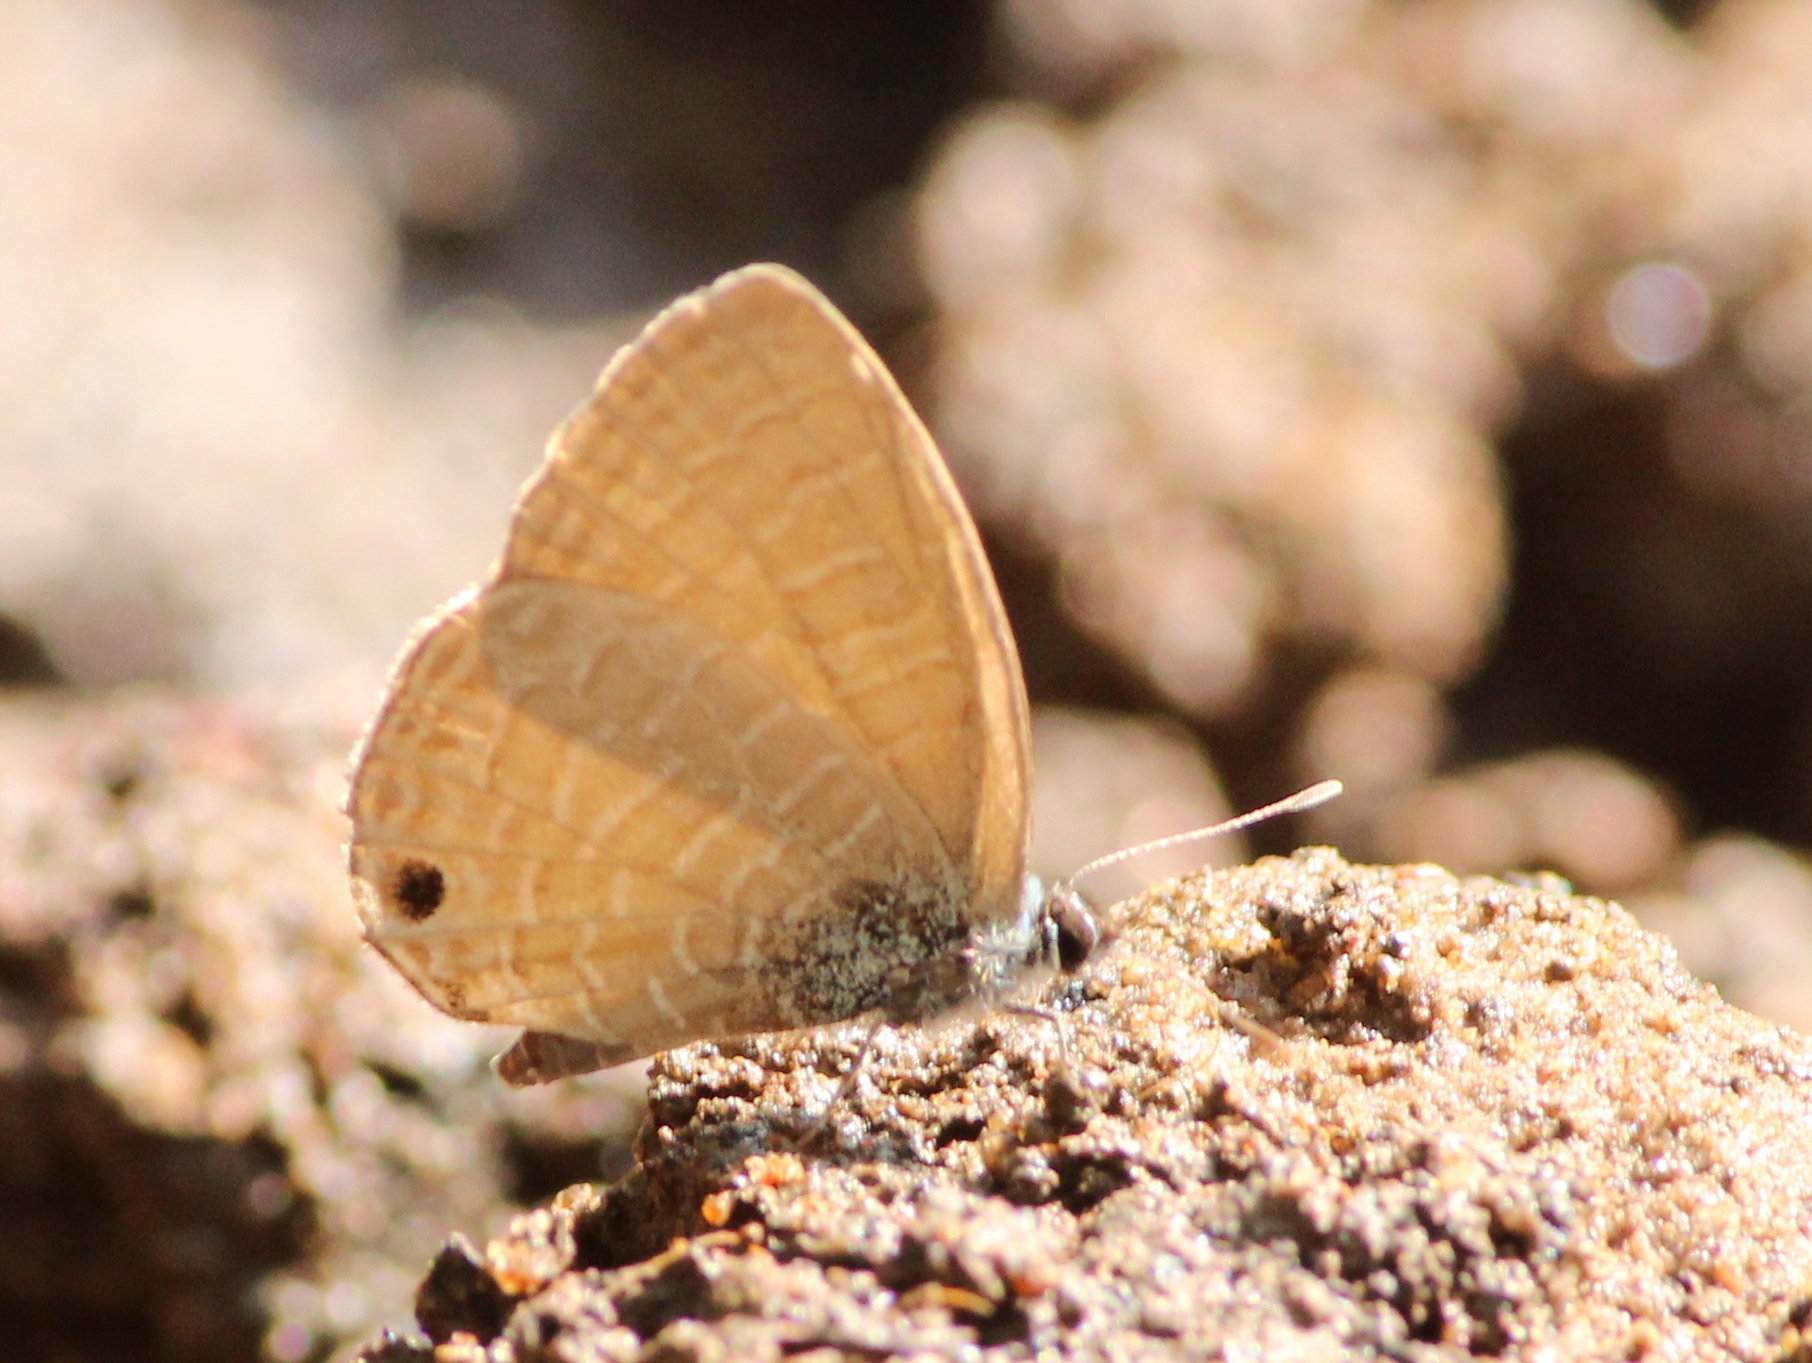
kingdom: Animalia
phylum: Arthropoda
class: Insecta
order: Lepidoptera
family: Lycaenidae
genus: Nacaduba
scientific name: Nacaduba beroe
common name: Opaque sixline blue
